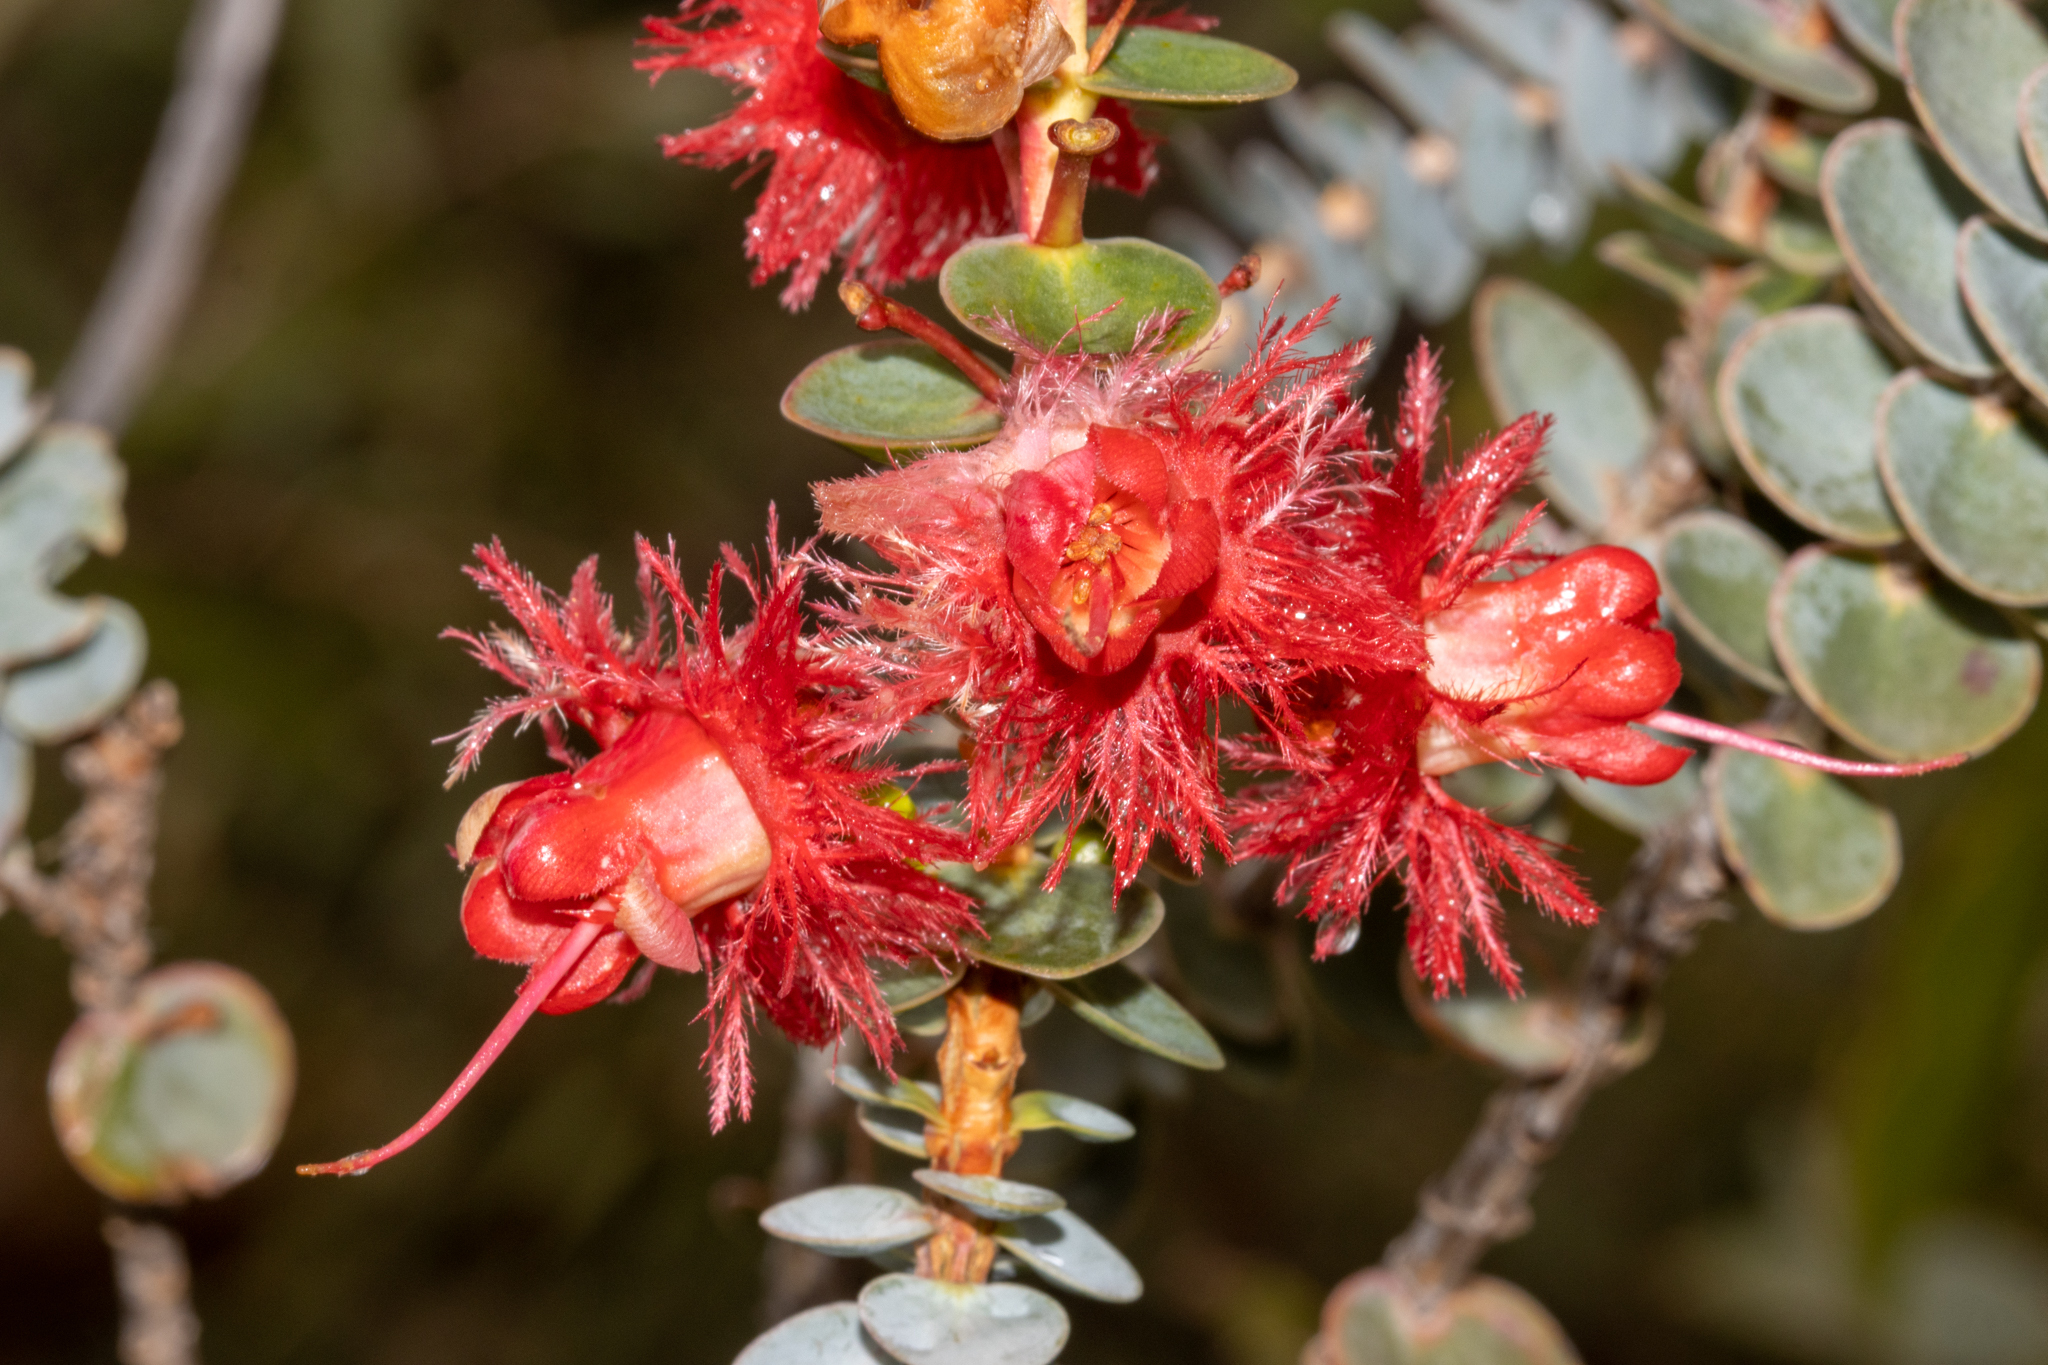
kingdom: Plantae
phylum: Tracheophyta
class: Magnoliopsida
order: Myrtales
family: Myrtaceae
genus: Verticordia
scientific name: Verticordia grandis
